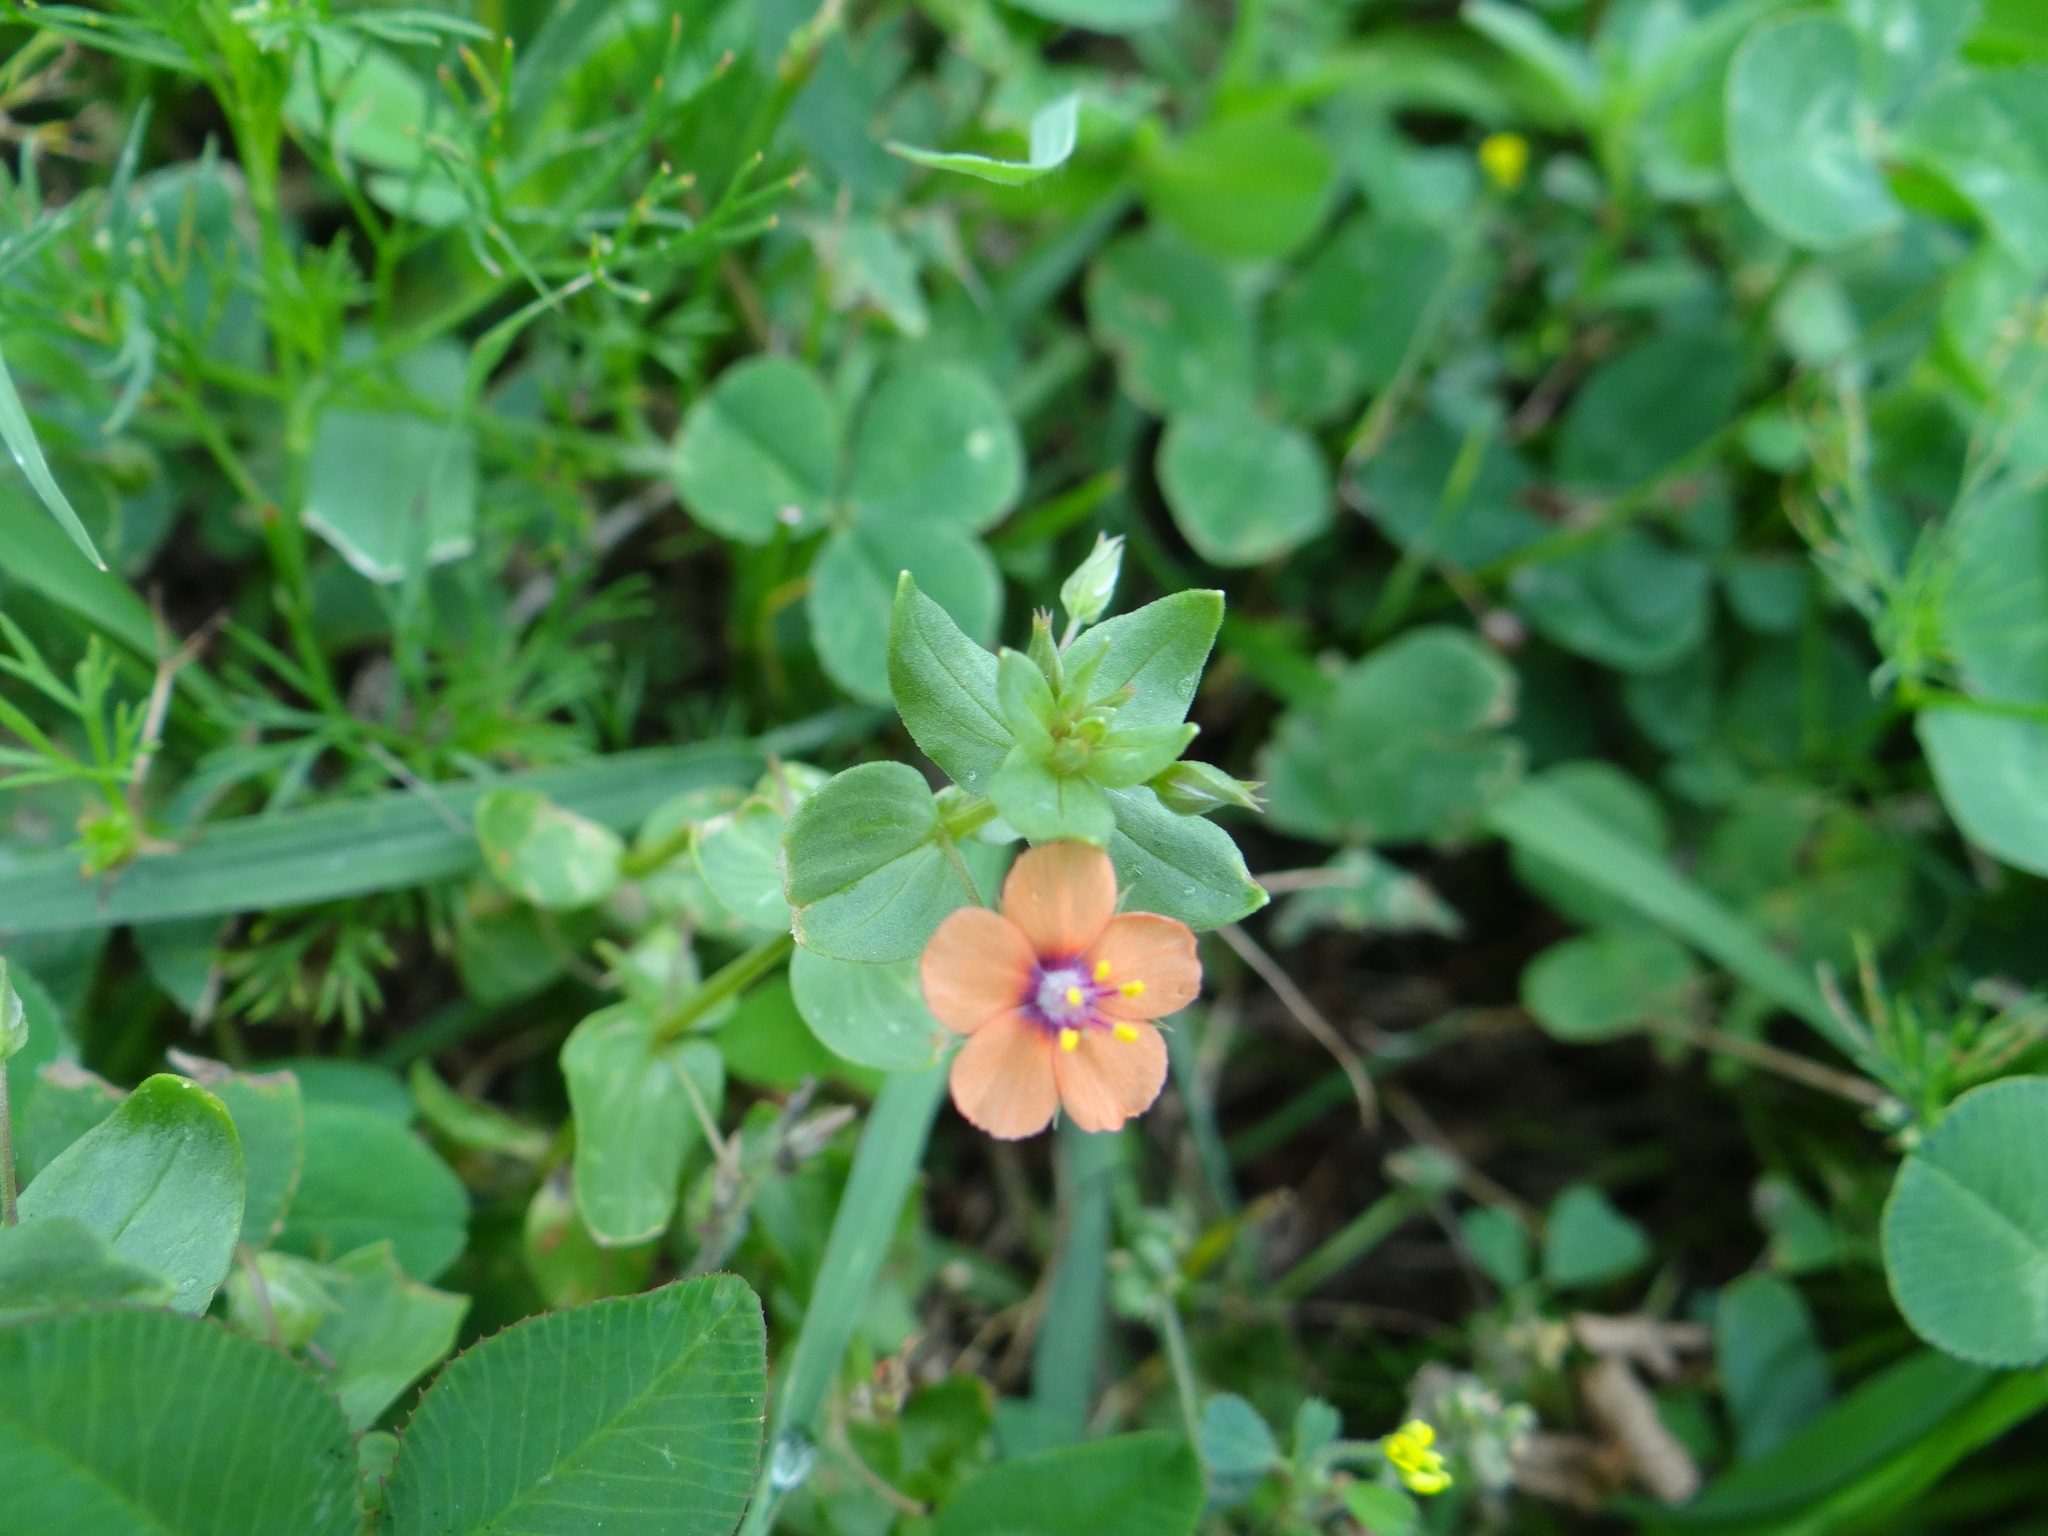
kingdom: Plantae
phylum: Tracheophyta
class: Magnoliopsida
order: Ericales
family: Primulaceae
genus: Lysimachia
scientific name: Lysimachia arvensis
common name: Scarlet pimpernel
